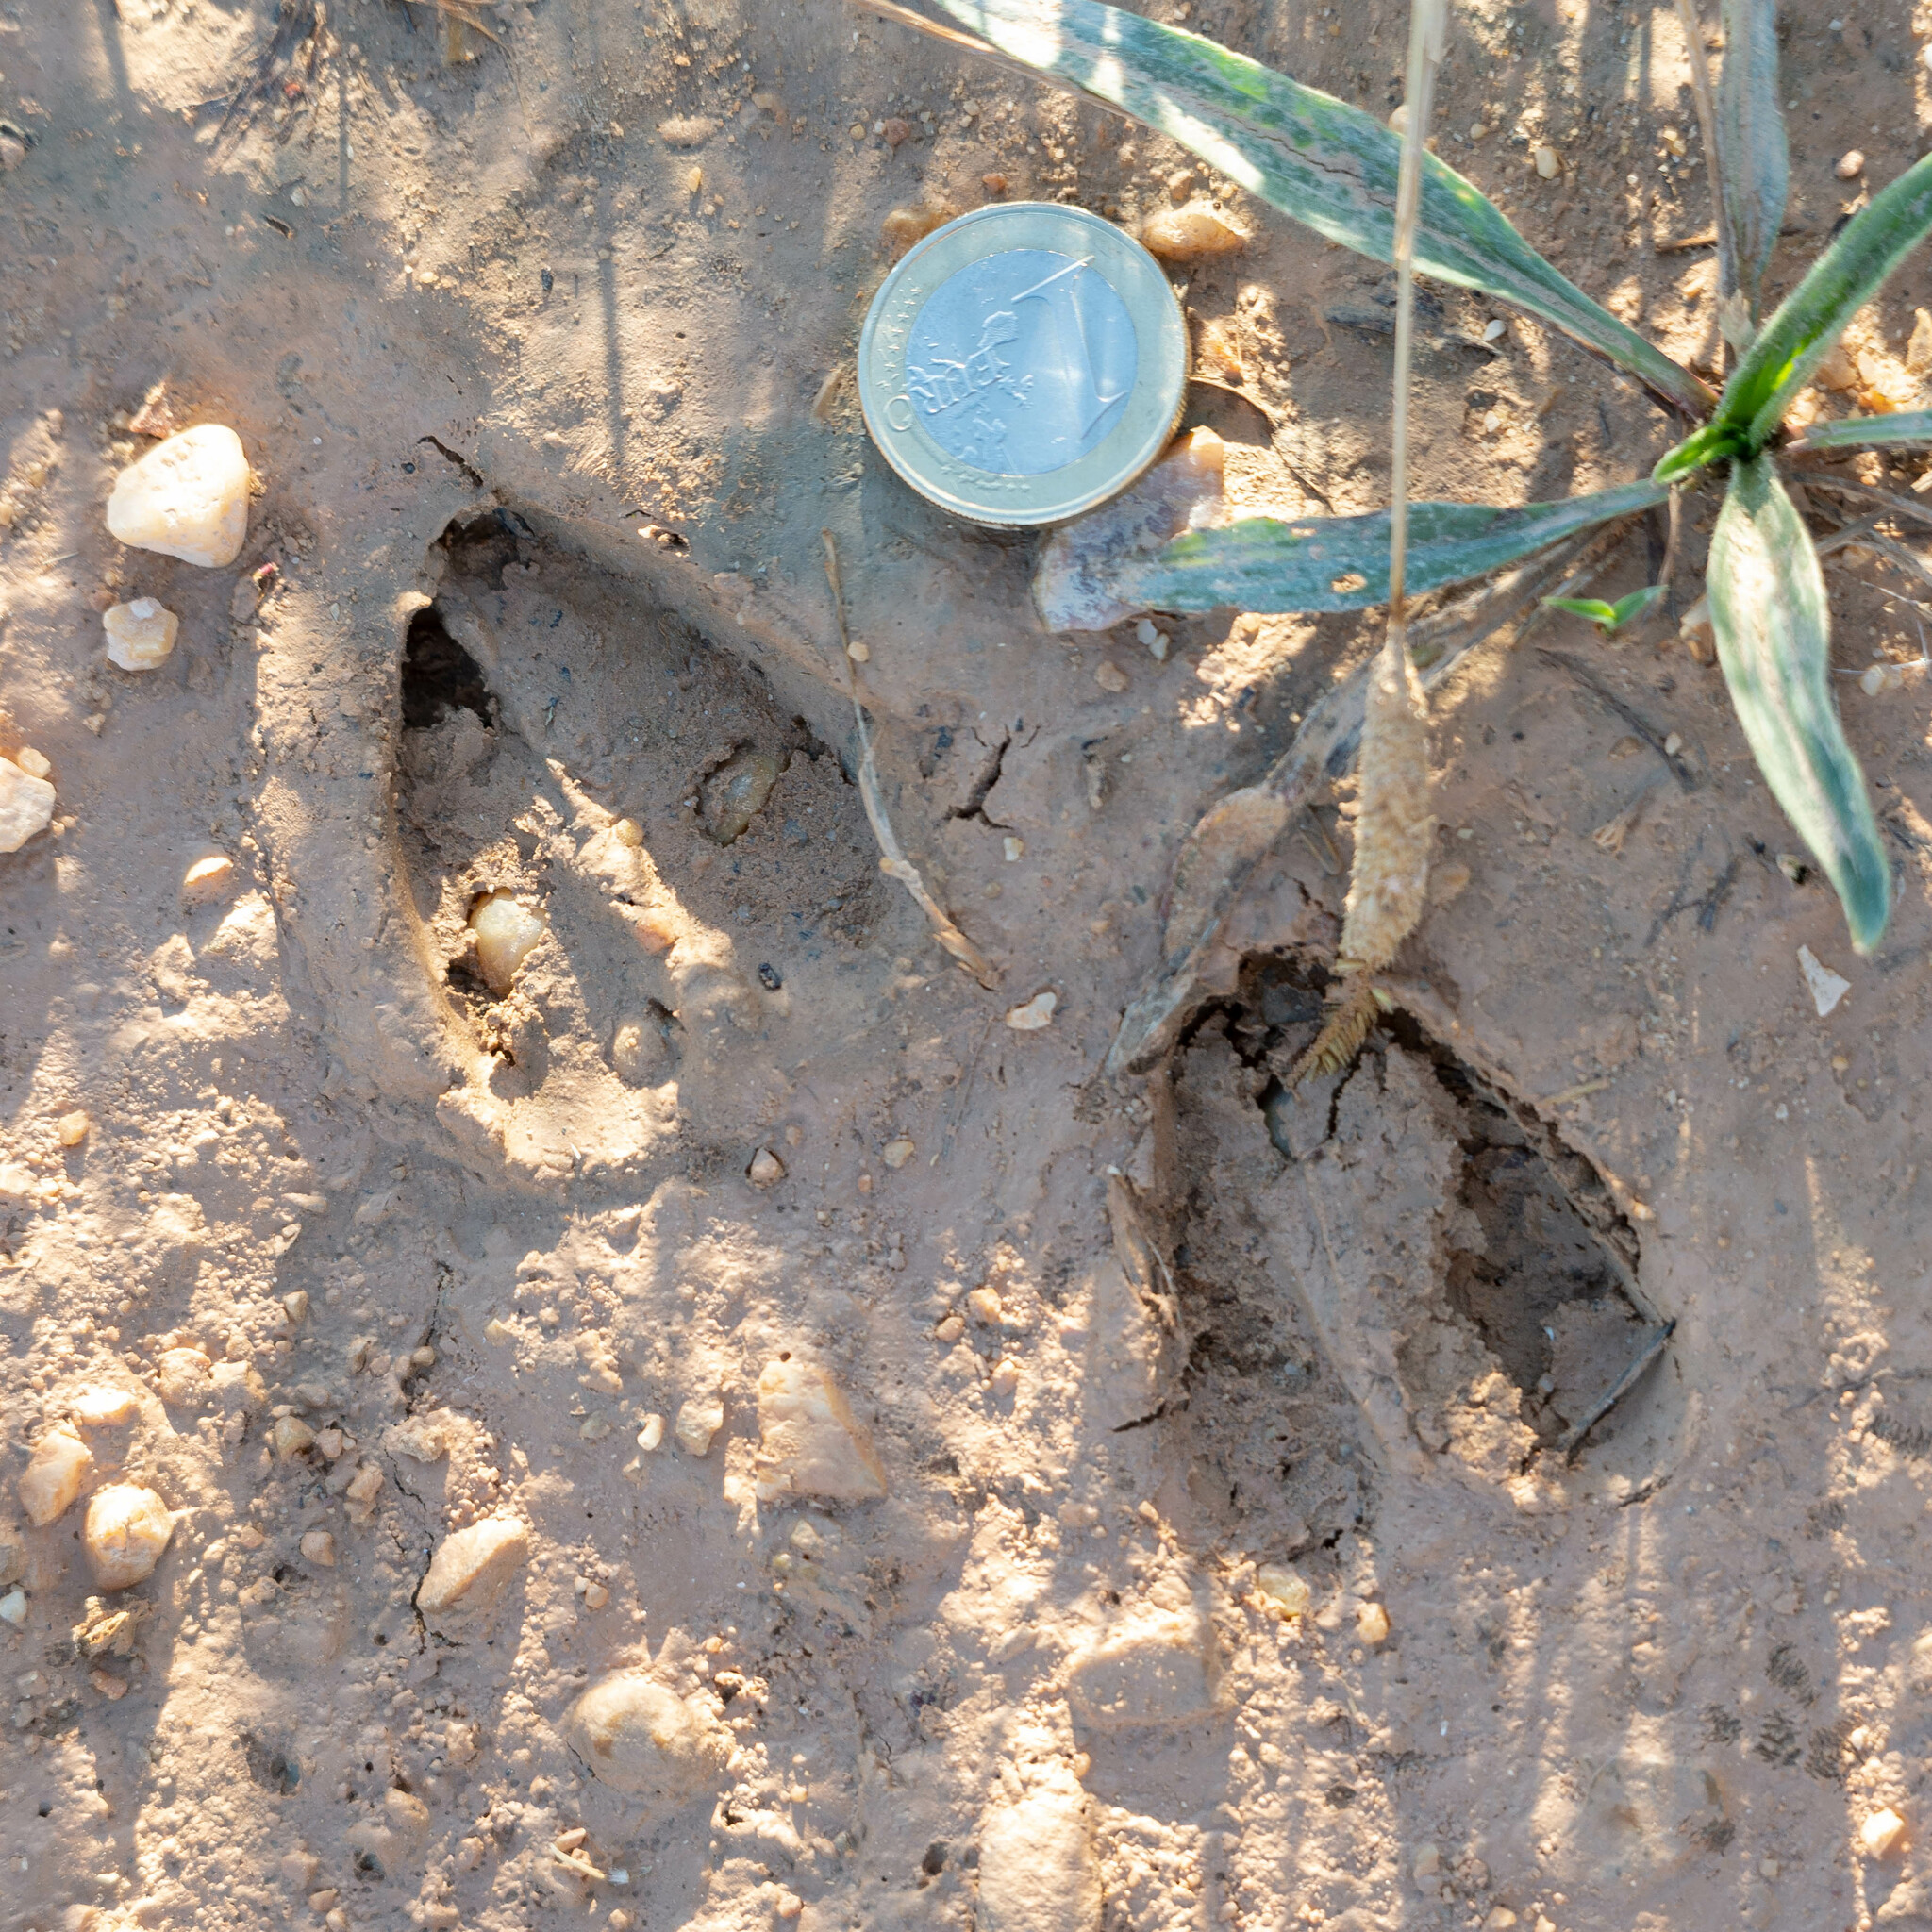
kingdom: Animalia
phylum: Chordata
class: Mammalia
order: Artiodactyla
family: Cervidae
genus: Capreolus
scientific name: Capreolus capreolus
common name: Western roe deer
